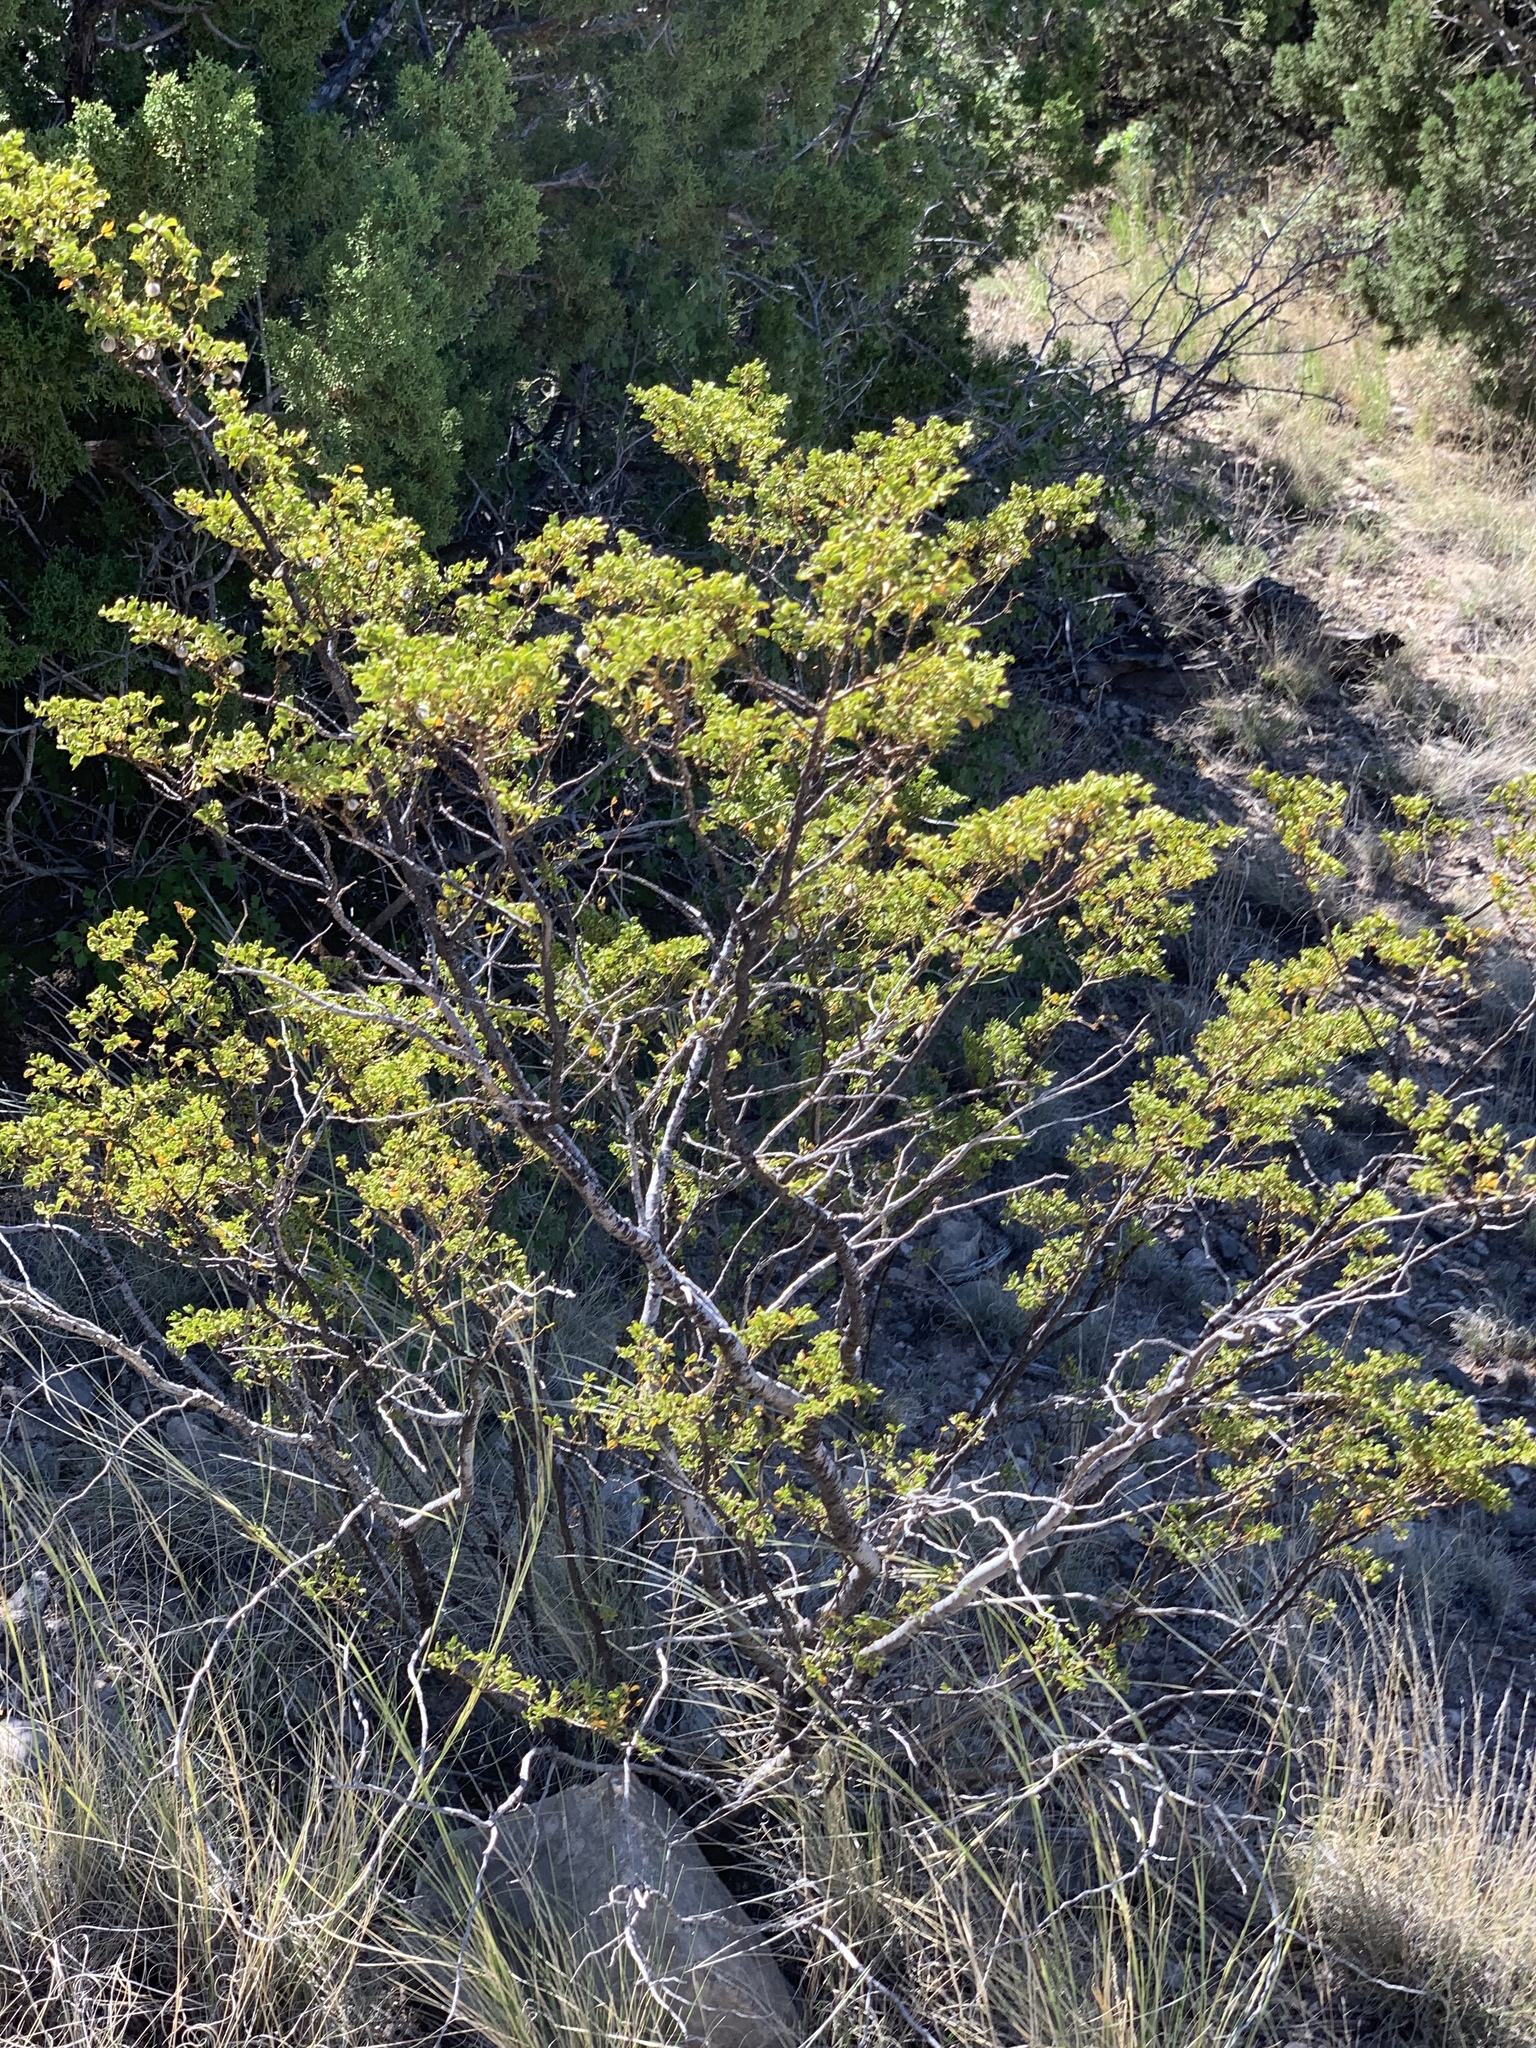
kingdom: Plantae
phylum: Tracheophyta
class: Magnoliopsida
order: Zygophyllales
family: Zygophyllaceae
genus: Larrea
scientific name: Larrea tridentata
